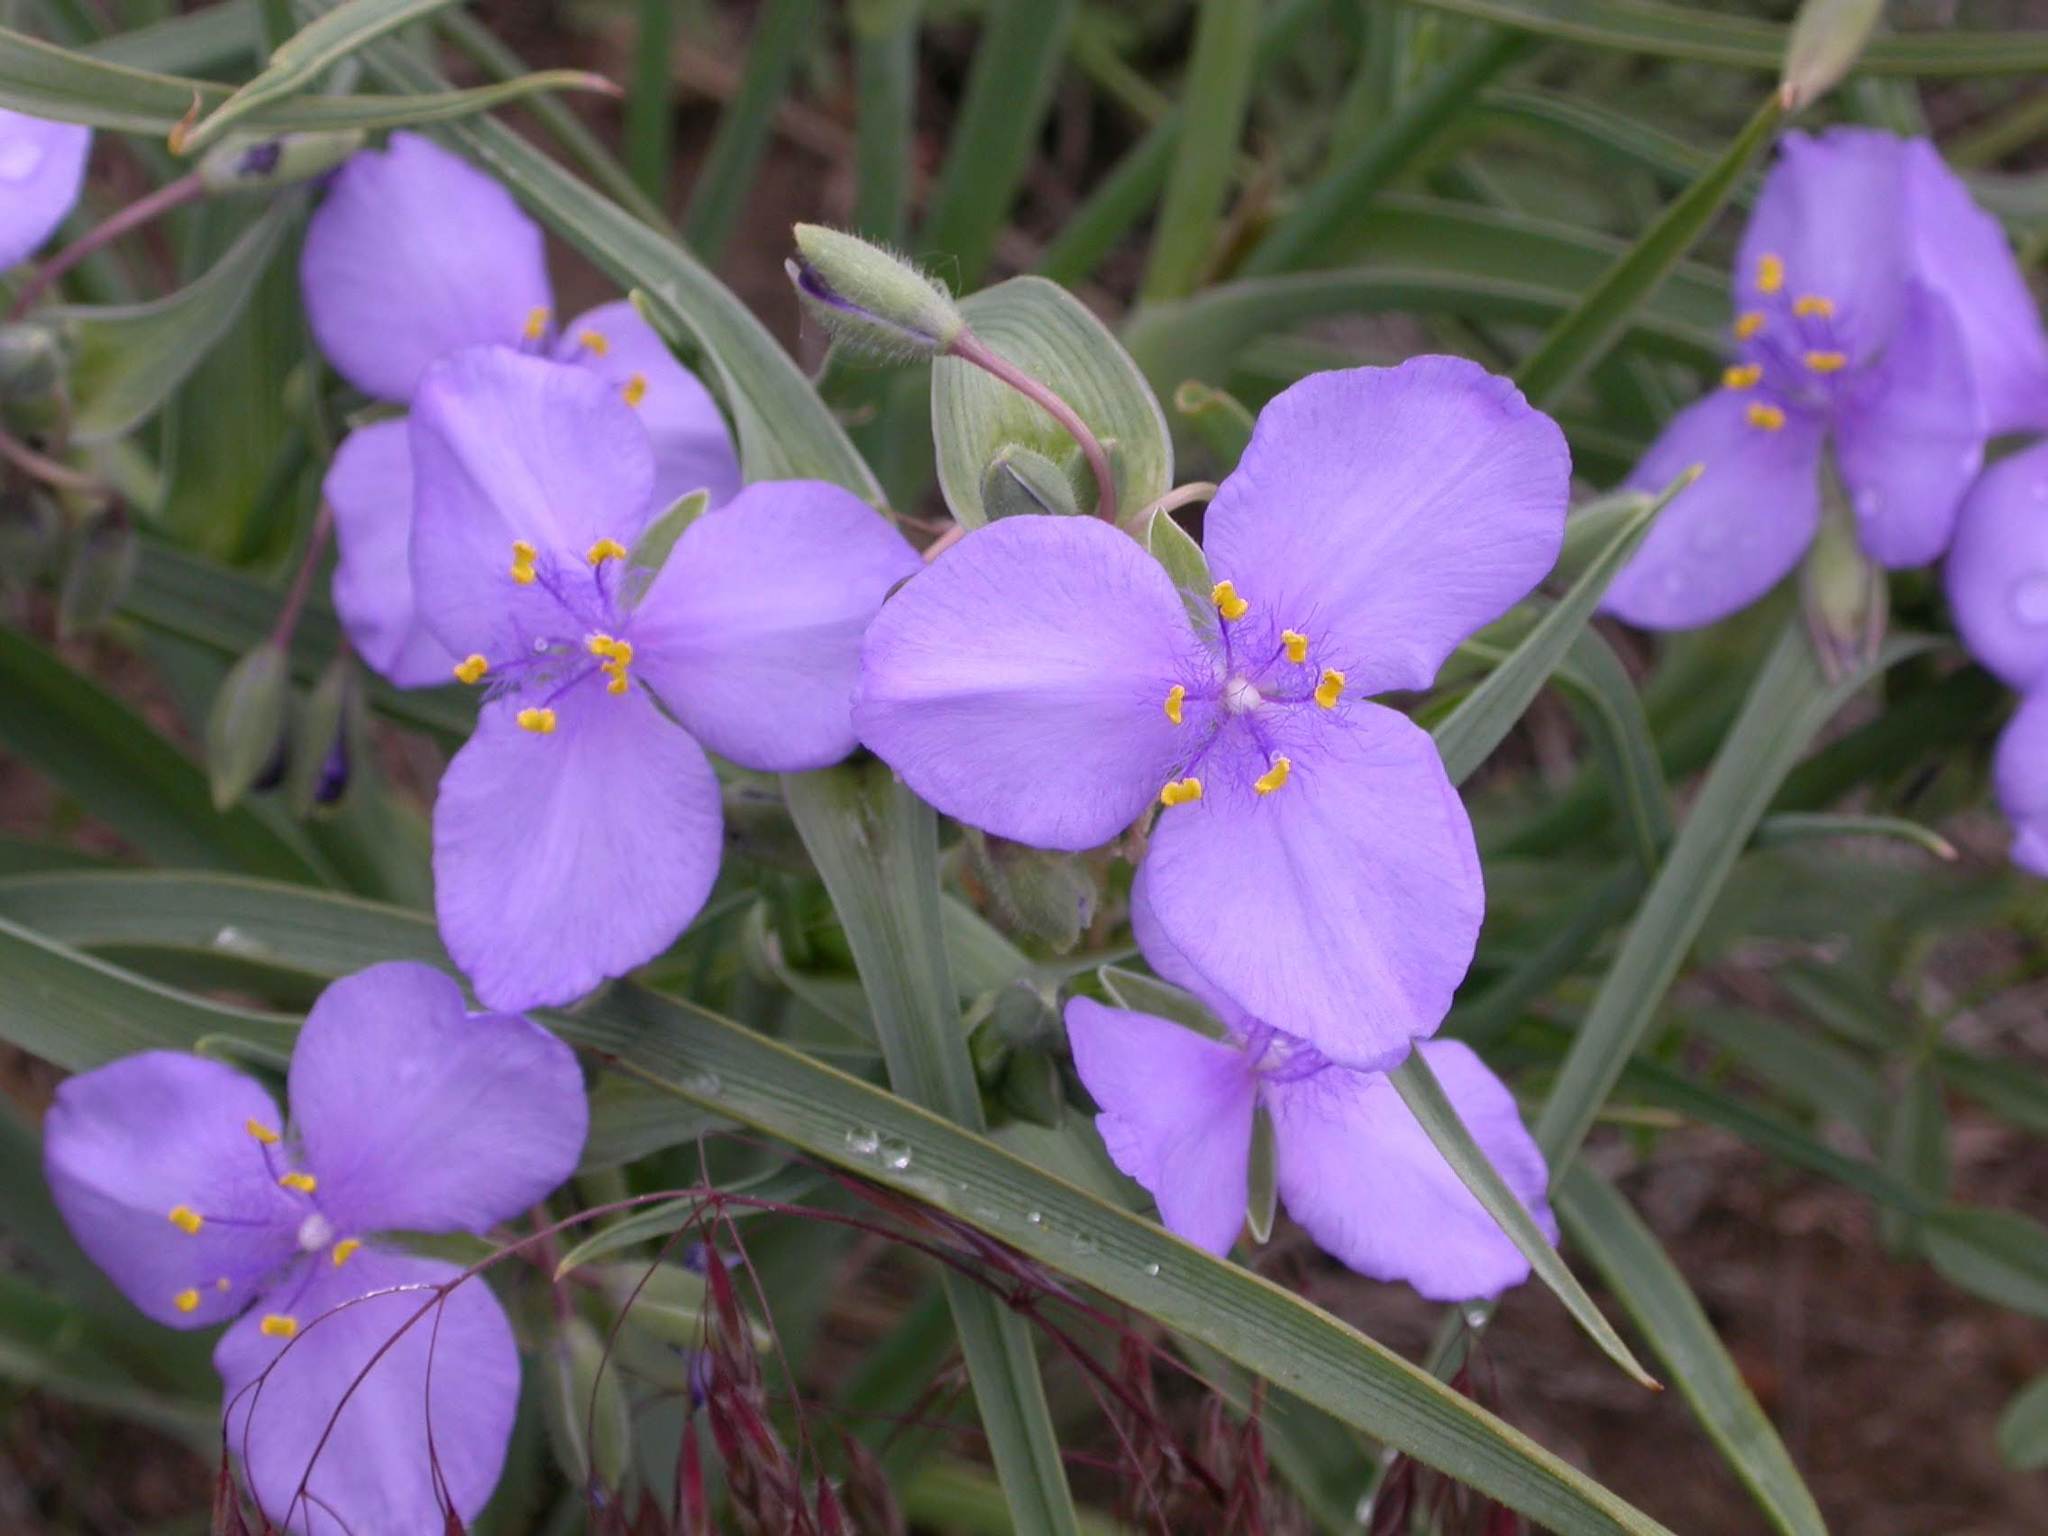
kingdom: Plantae
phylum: Tracheophyta
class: Liliopsida
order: Commelinales
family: Commelinaceae
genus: Tradescantia
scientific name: Tradescantia occidentalis
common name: Prairie spiderwort
